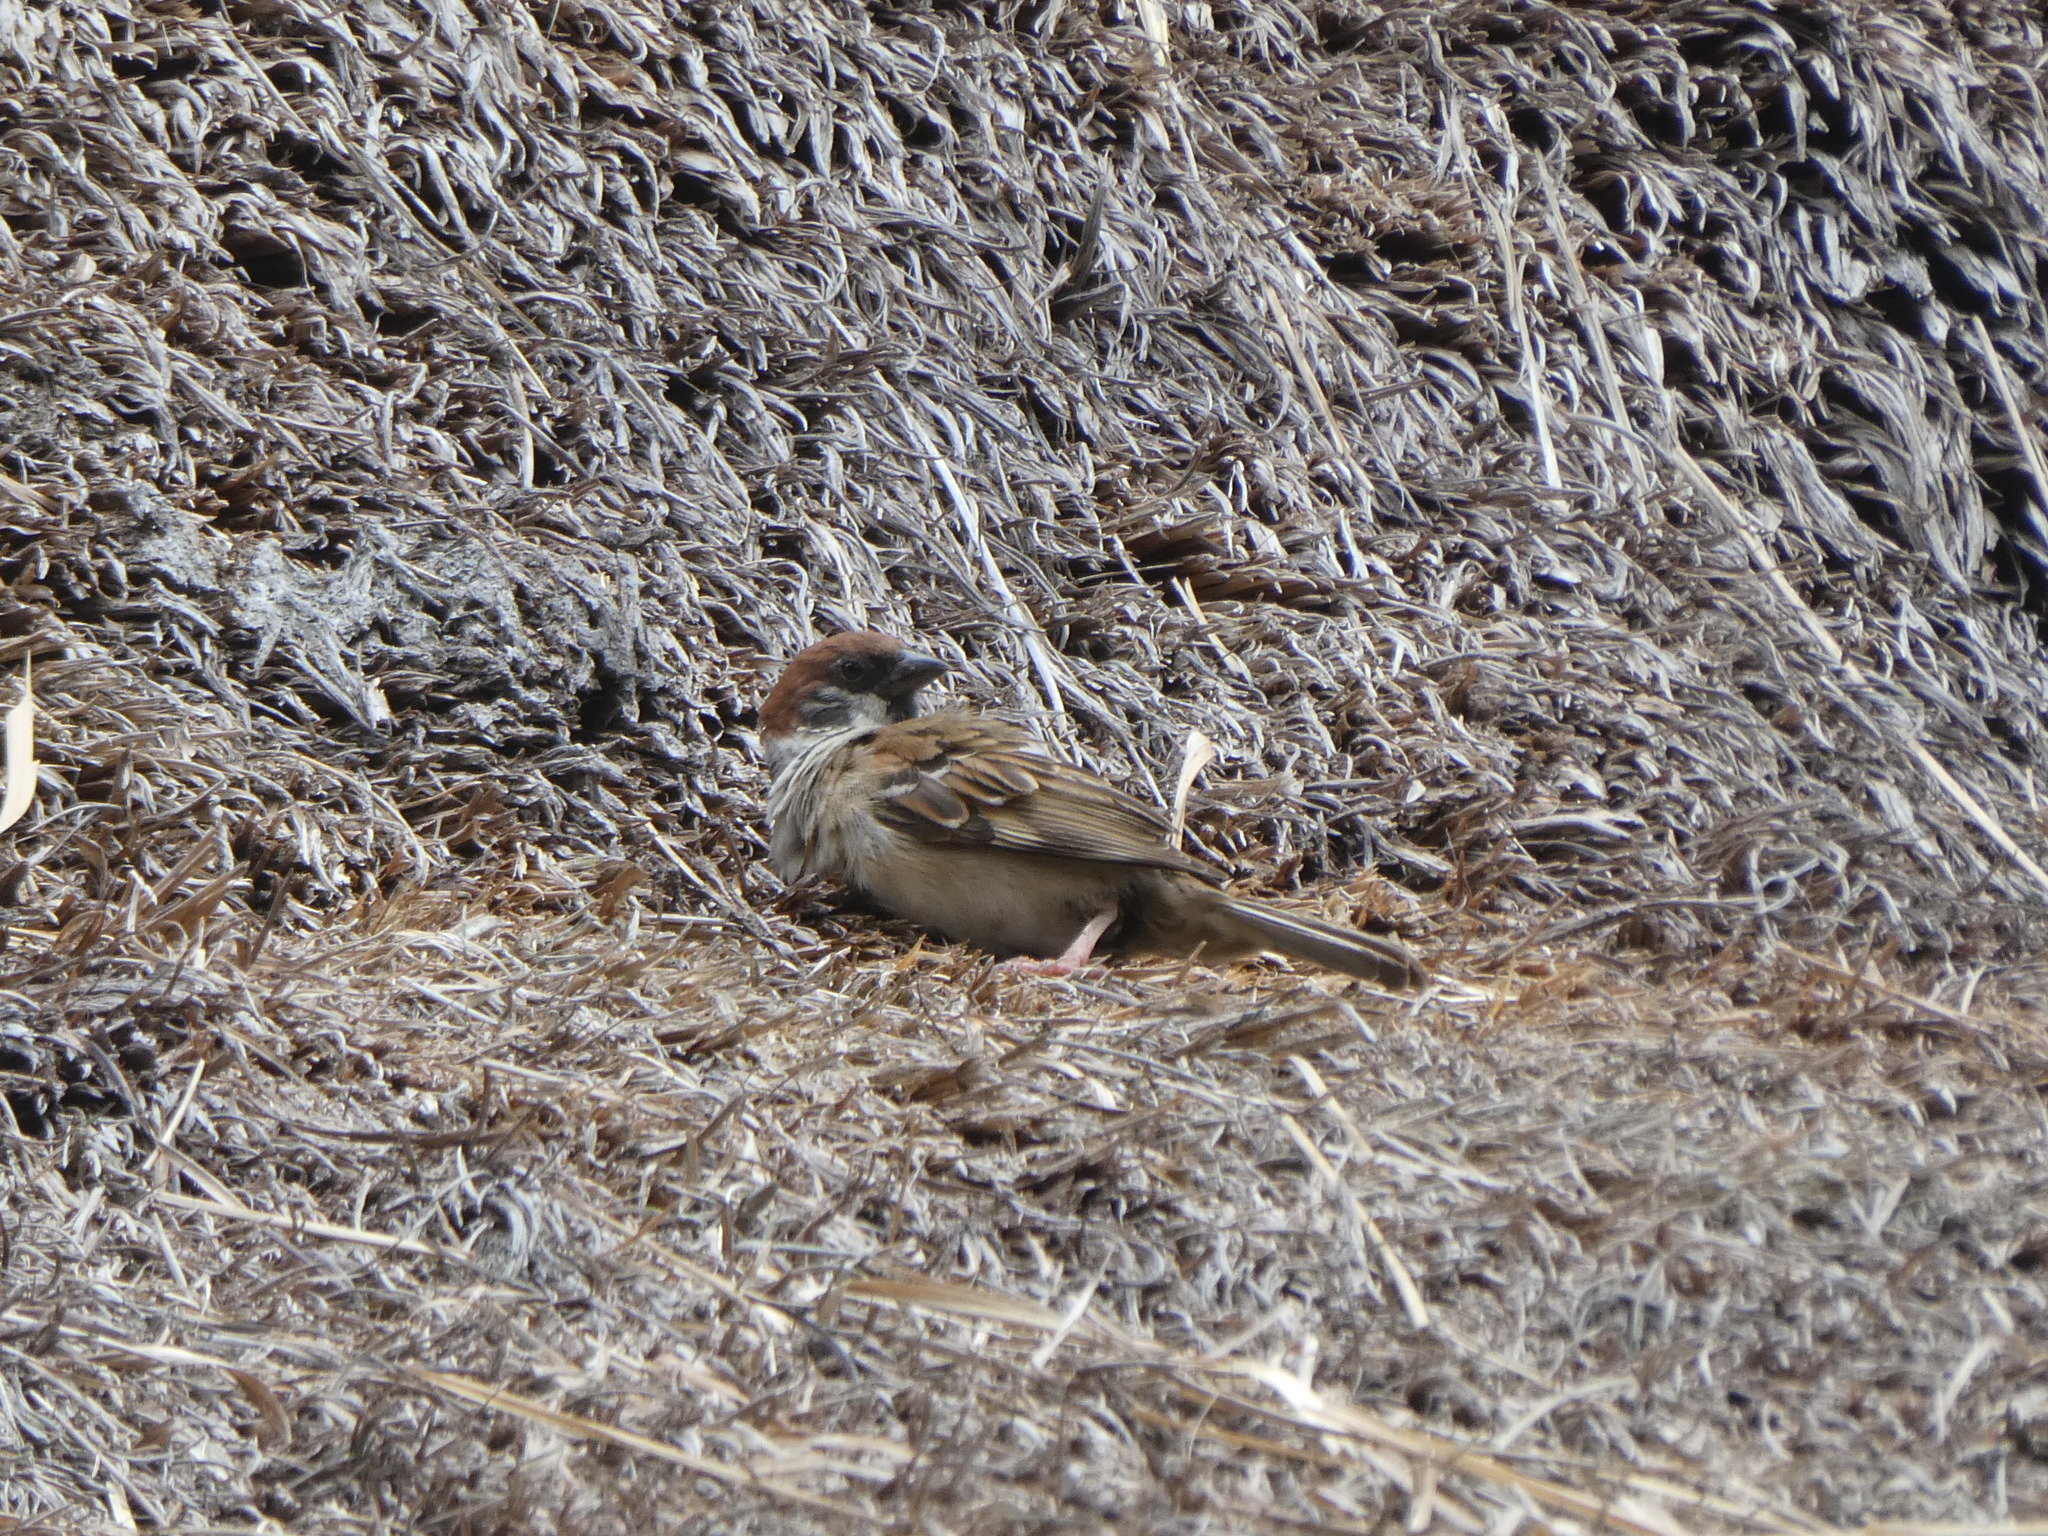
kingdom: Animalia
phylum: Chordata
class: Aves
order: Passeriformes
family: Passeridae
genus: Passer
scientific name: Passer montanus
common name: Eurasian tree sparrow
